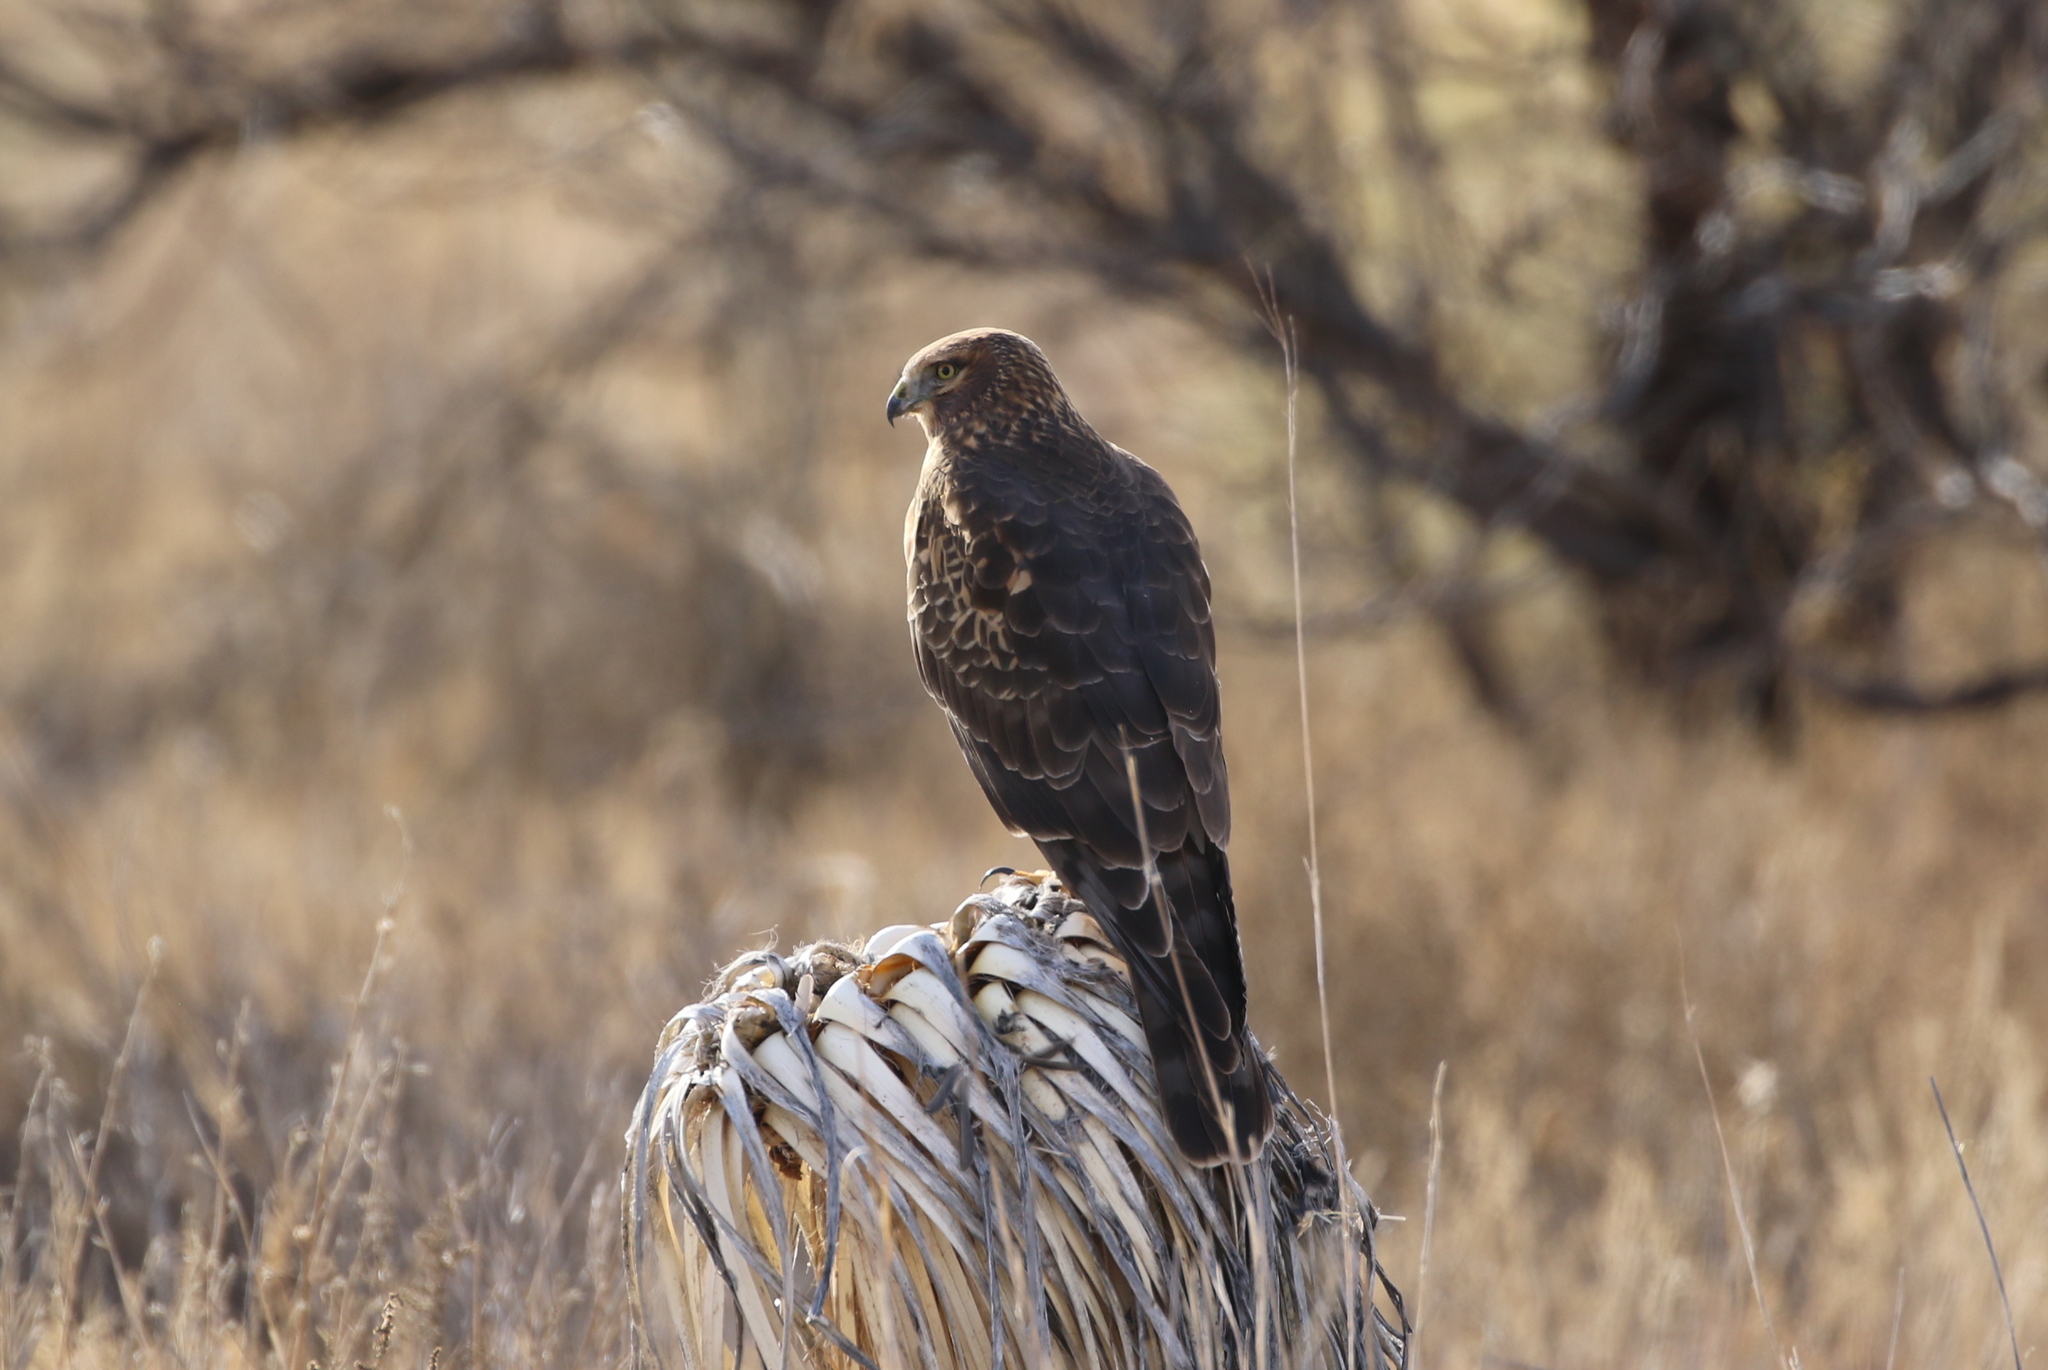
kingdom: Animalia
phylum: Chordata
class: Aves
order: Accipitriformes
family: Accipitridae
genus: Circus
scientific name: Circus cyaneus
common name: Hen harrier
